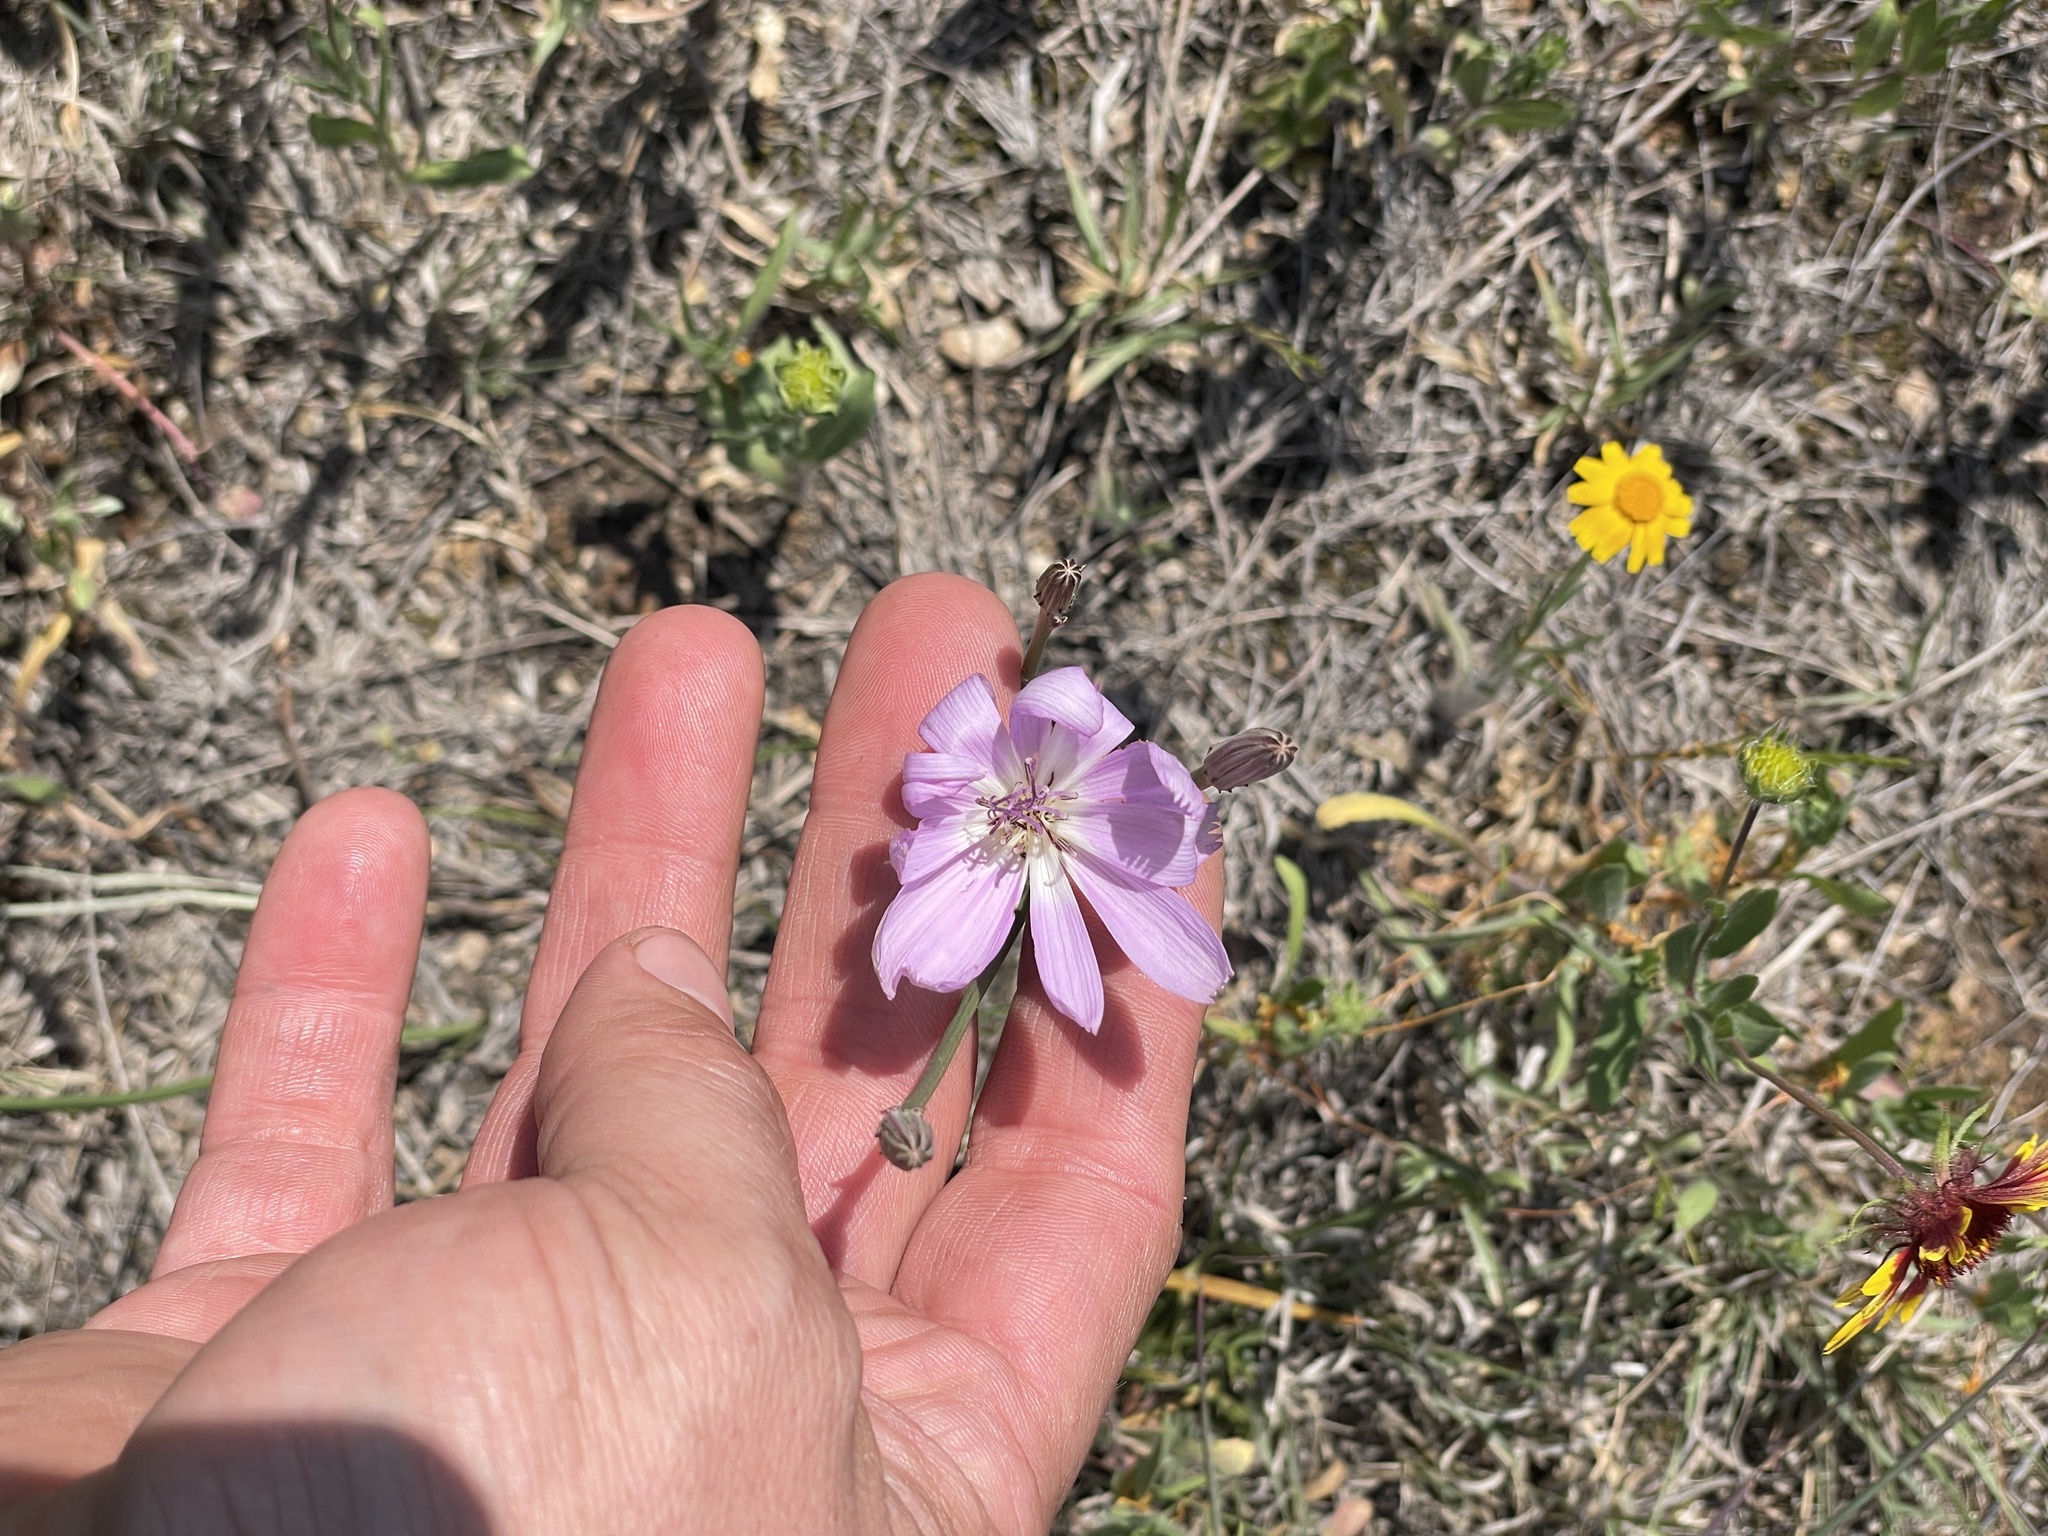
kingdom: Plantae
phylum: Tracheophyta
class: Magnoliopsida
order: Asterales
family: Asteraceae
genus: Lygodesmia
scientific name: Lygodesmia texana
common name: Texas skeleton-plant
